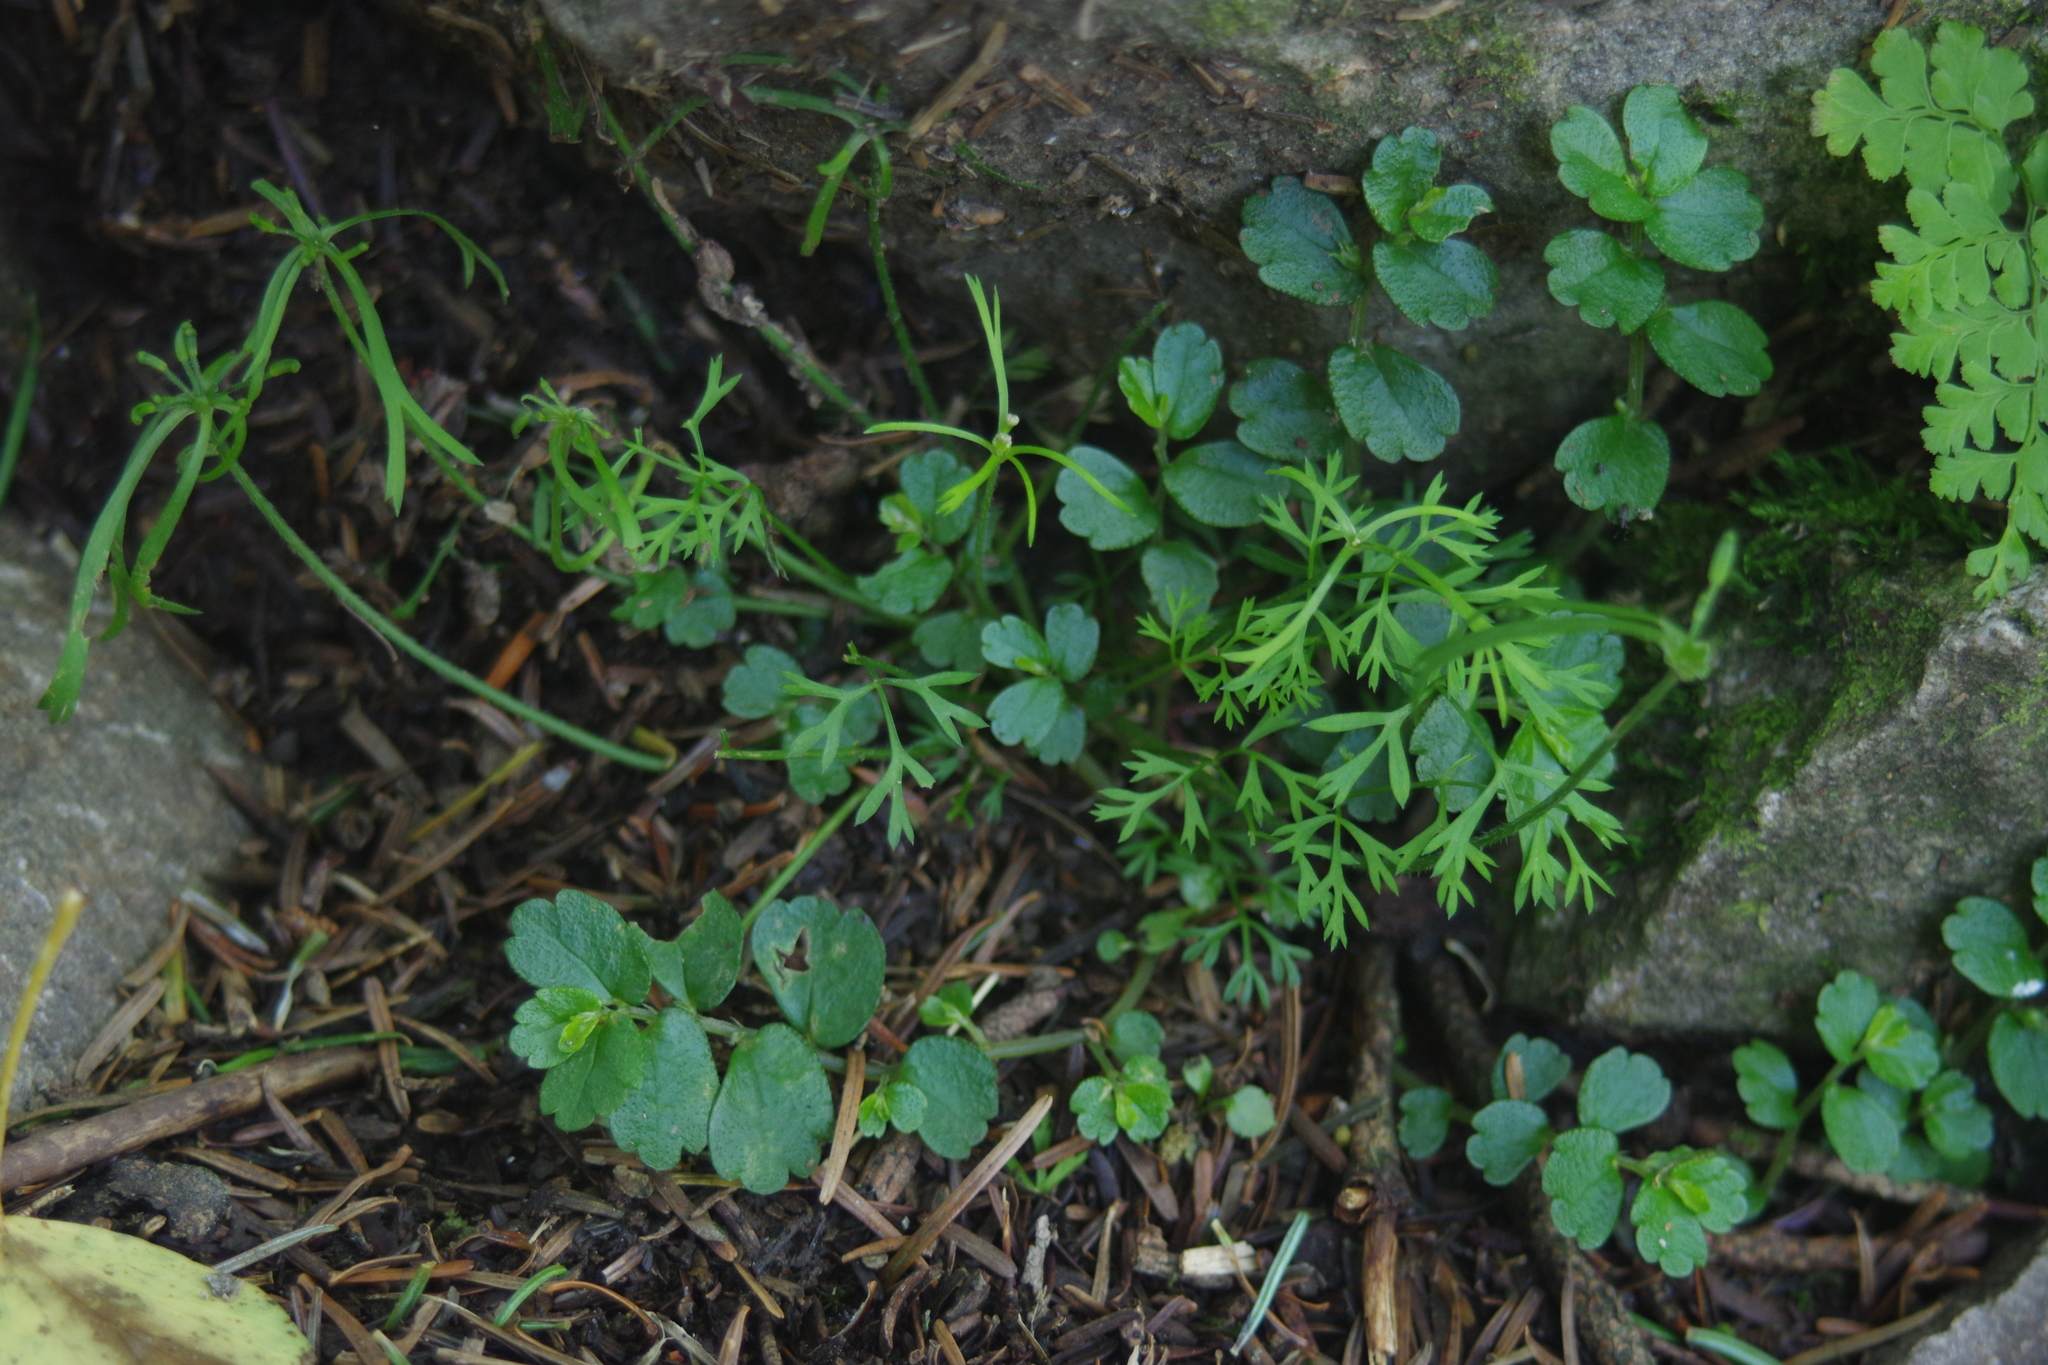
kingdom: Plantae
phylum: Tracheophyta
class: Magnoliopsida
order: Apiales
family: Apiaceae
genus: Chaerophyllum
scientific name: Chaerophyllum involucratum
